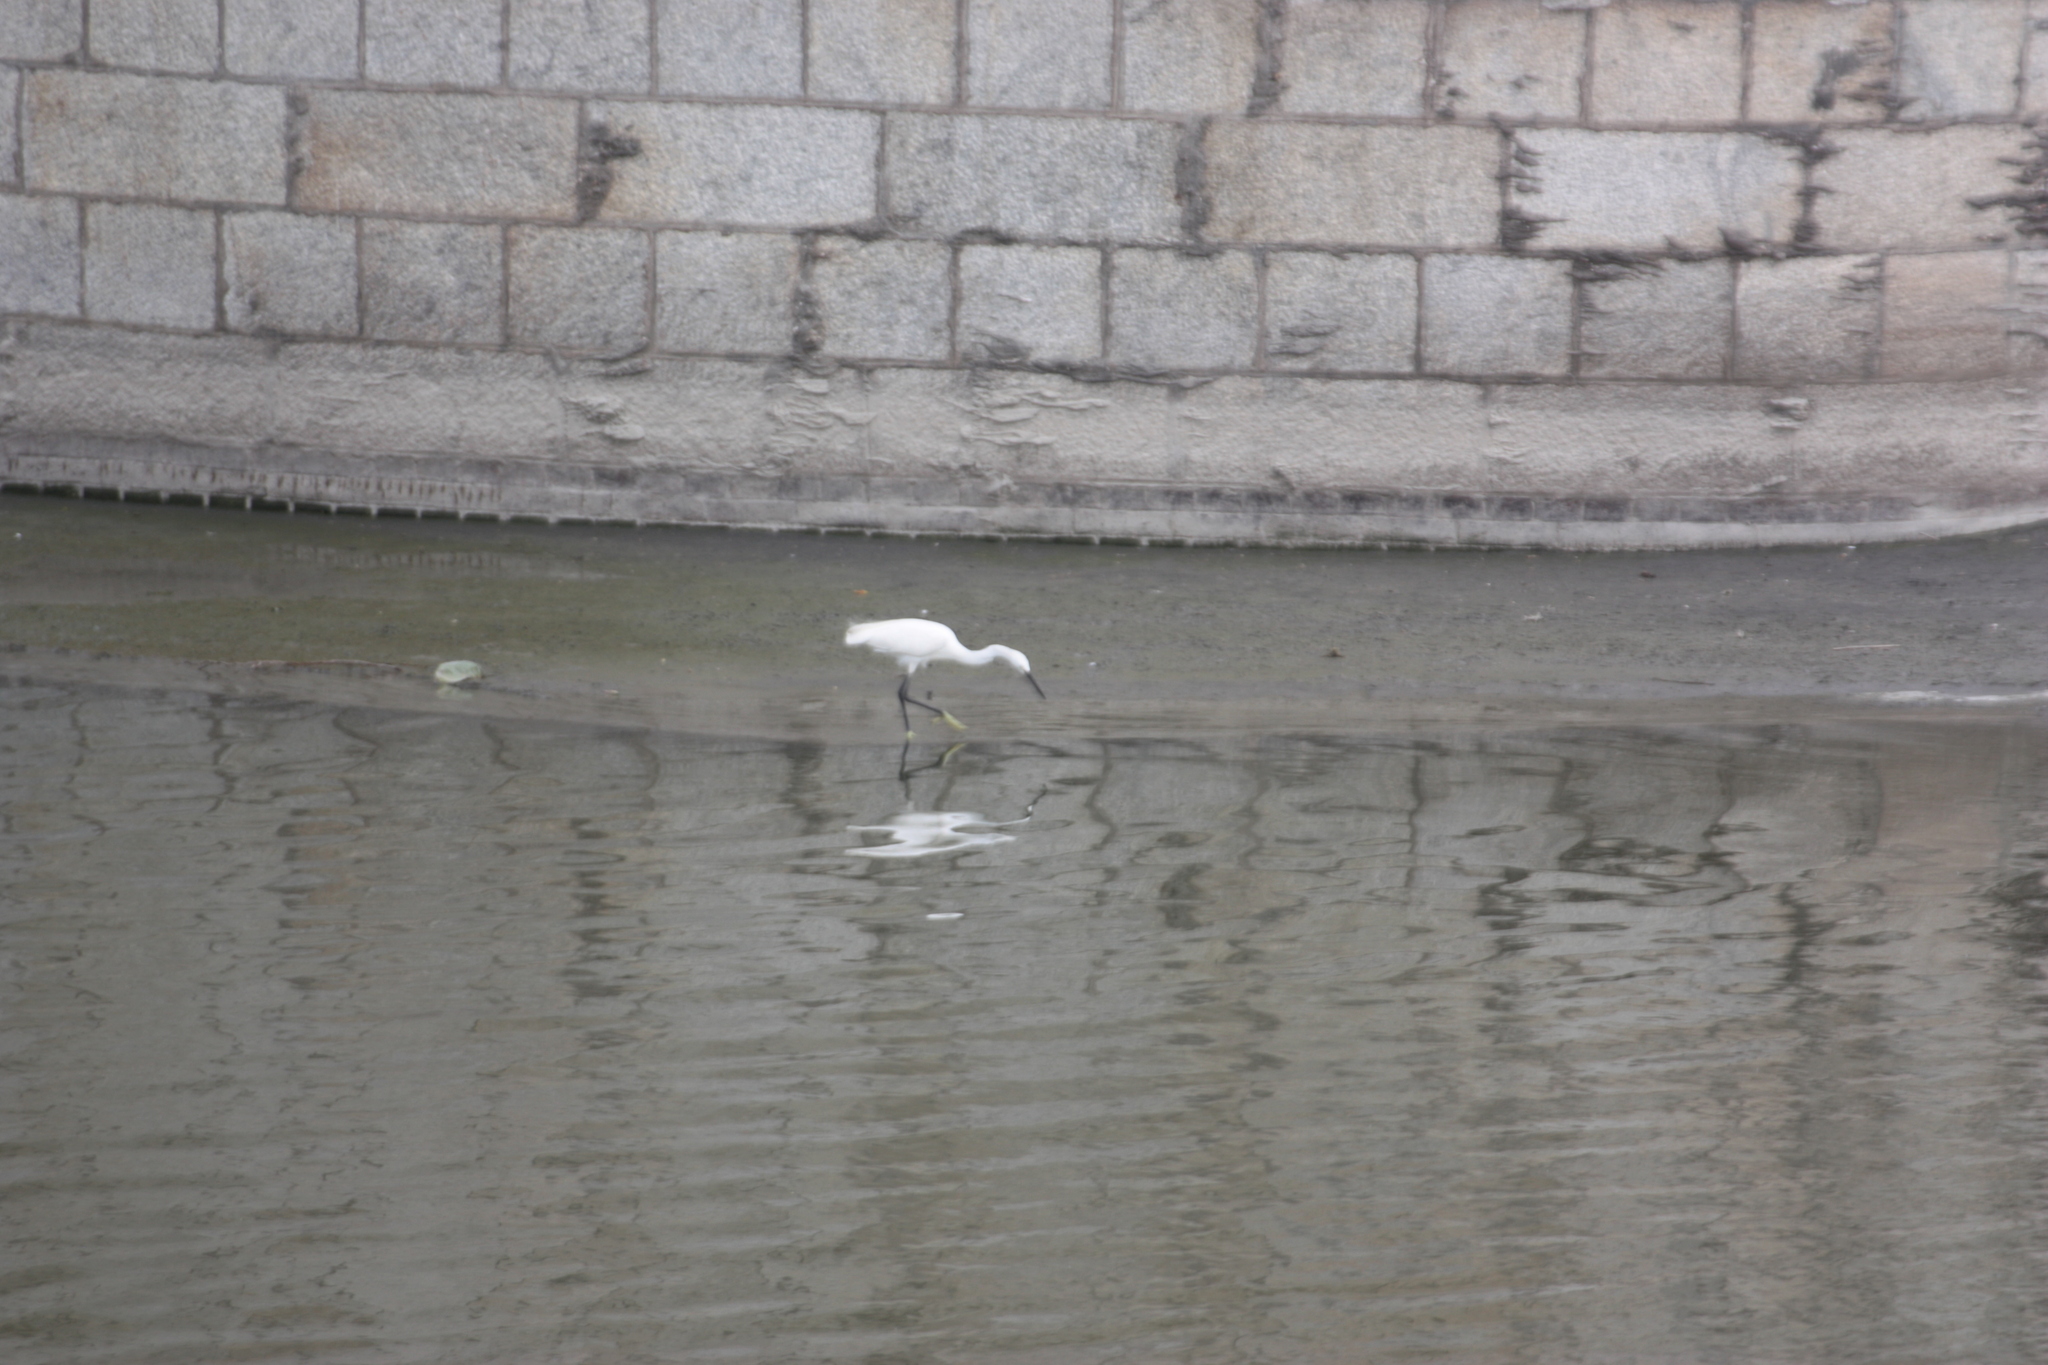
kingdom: Animalia
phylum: Chordata
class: Aves
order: Pelecaniformes
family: Ardeidae
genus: Egretta
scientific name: Egretta garzetta
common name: Little egret
